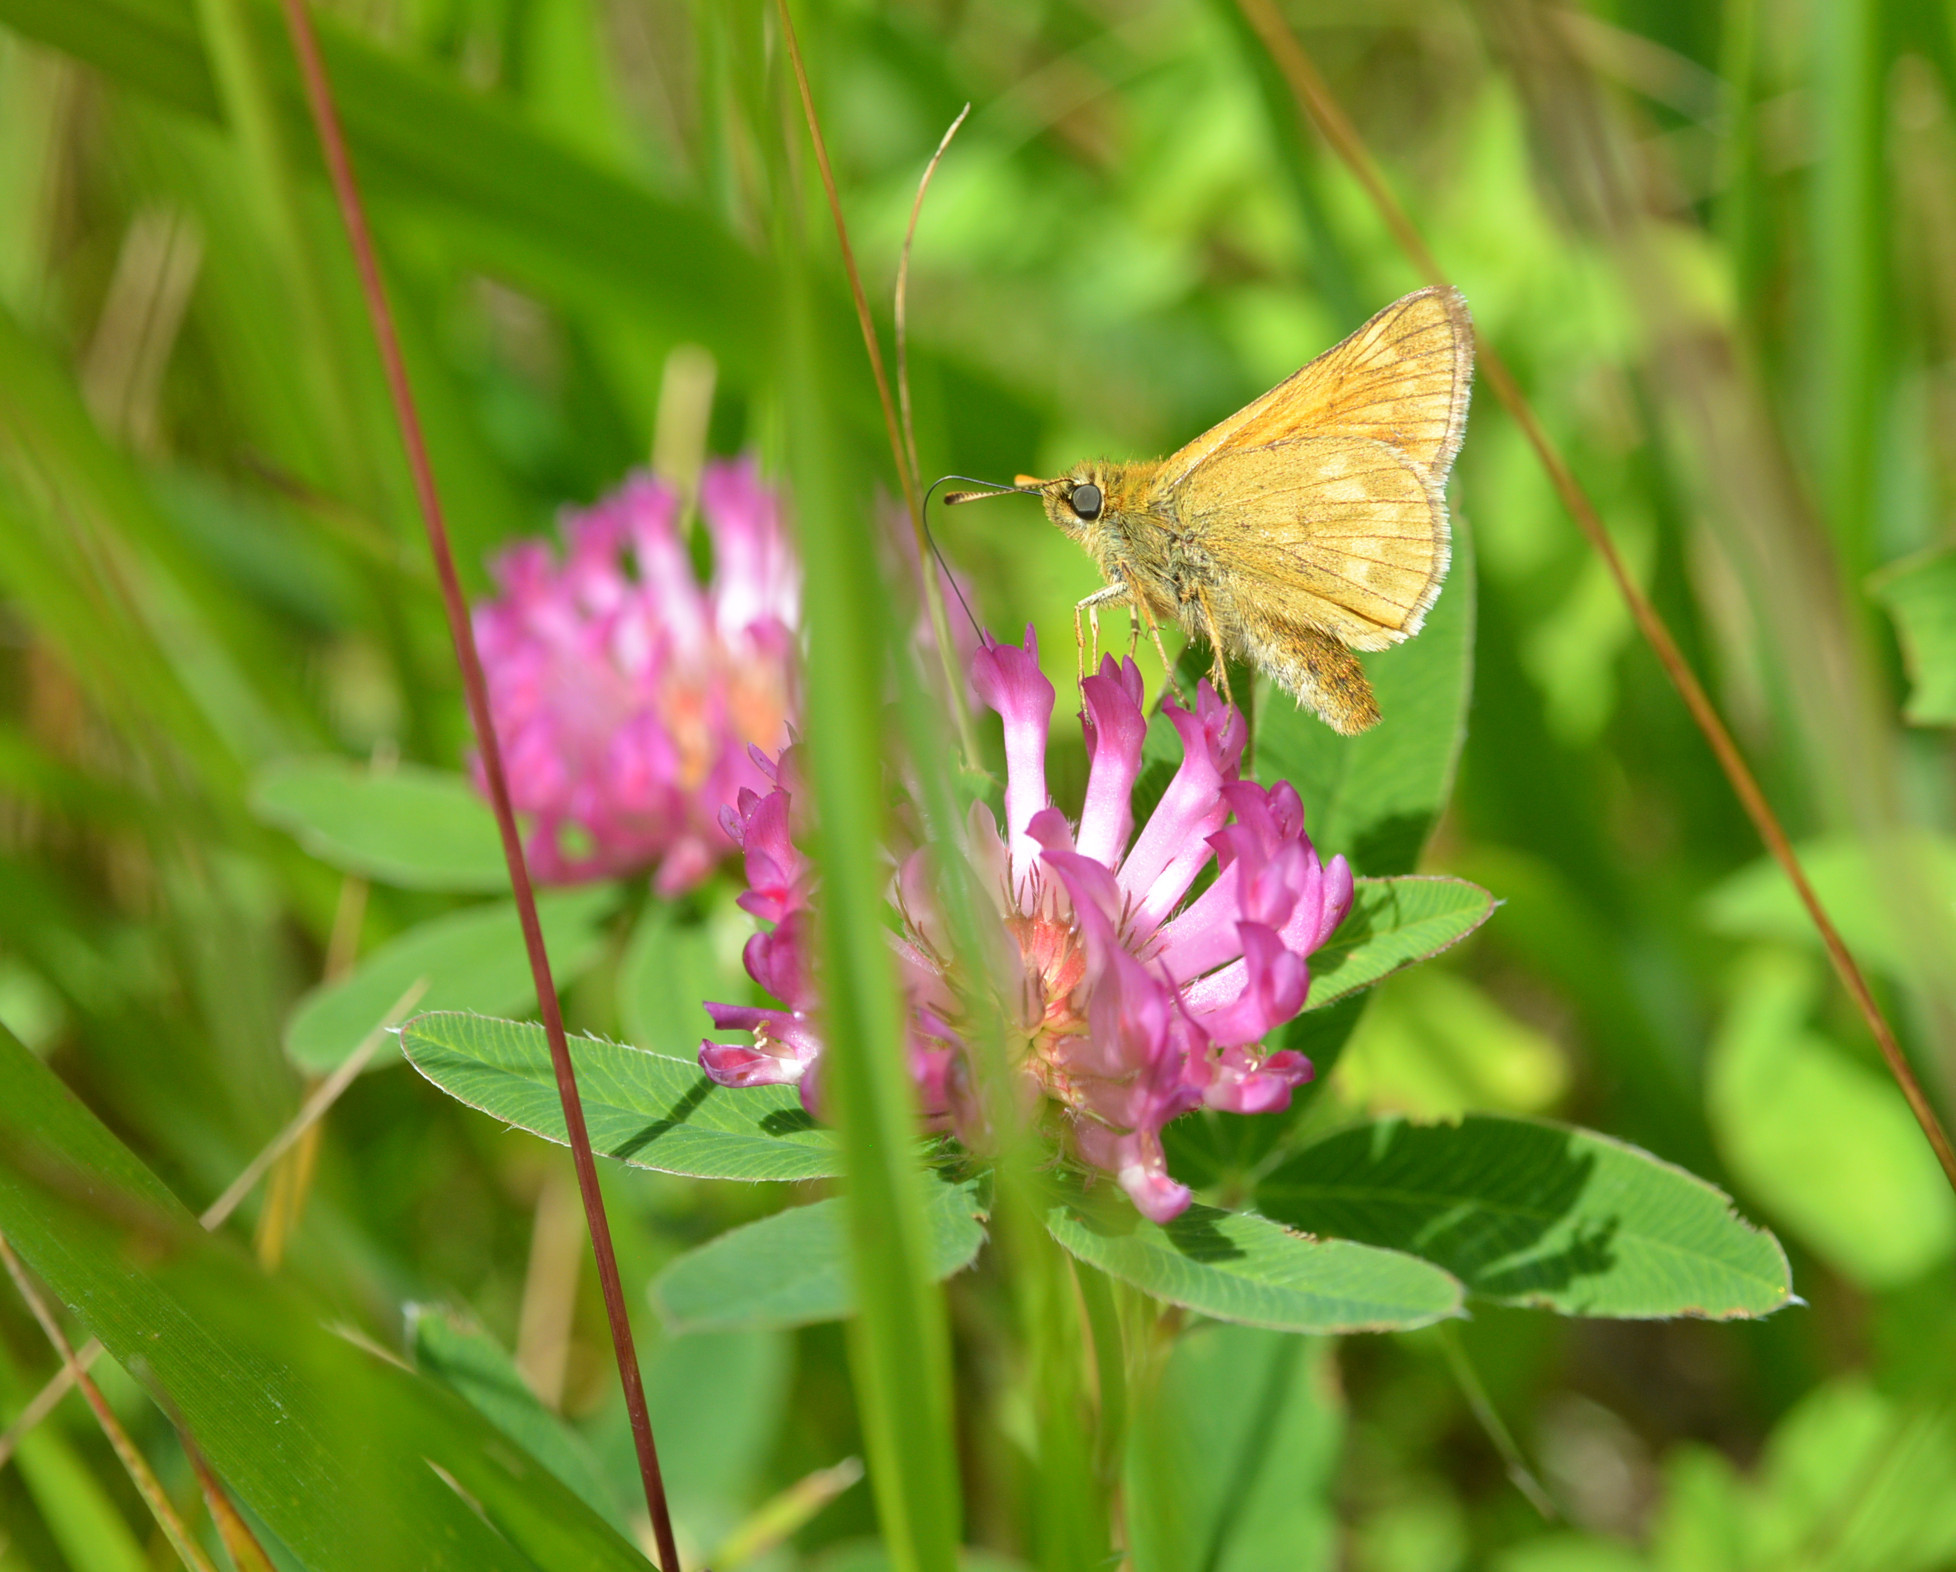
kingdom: Animalia
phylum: Arthropoda
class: Insecta
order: Lepidoptera
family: Hesperiidae
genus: Ochlodes
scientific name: Ochlodes venata
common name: Large skipper
